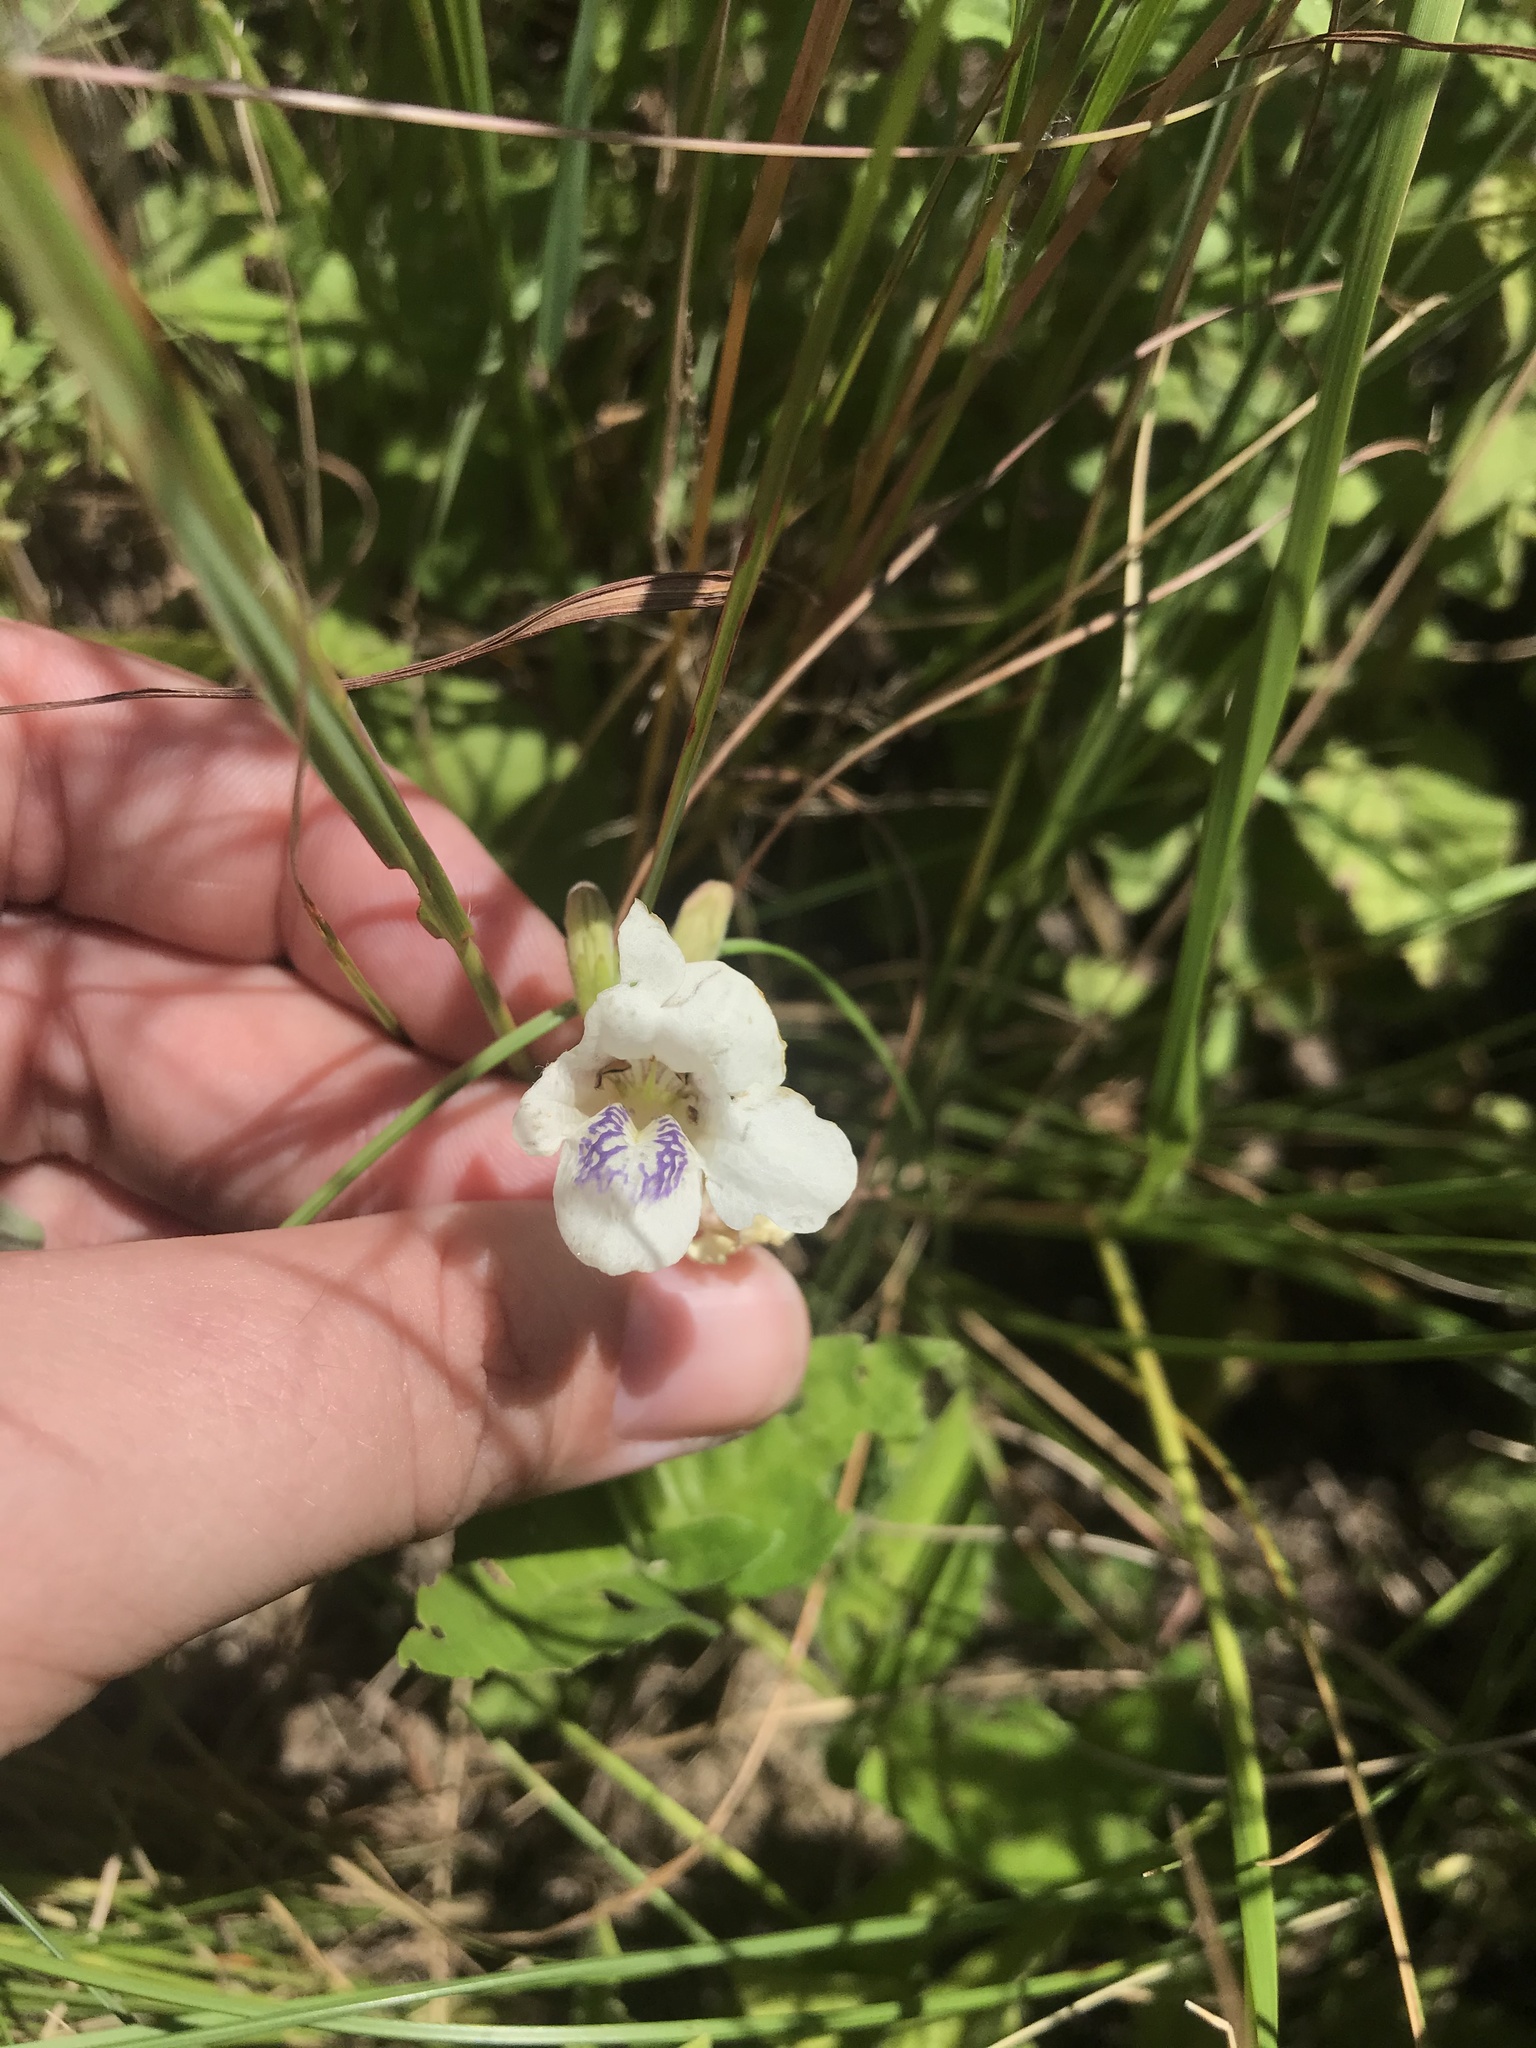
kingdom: Plantae
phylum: Tracheophyta
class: Magnoliopsida
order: Lamiales
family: Acanthaceae
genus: Asystasia
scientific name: Asystasia intrusa
